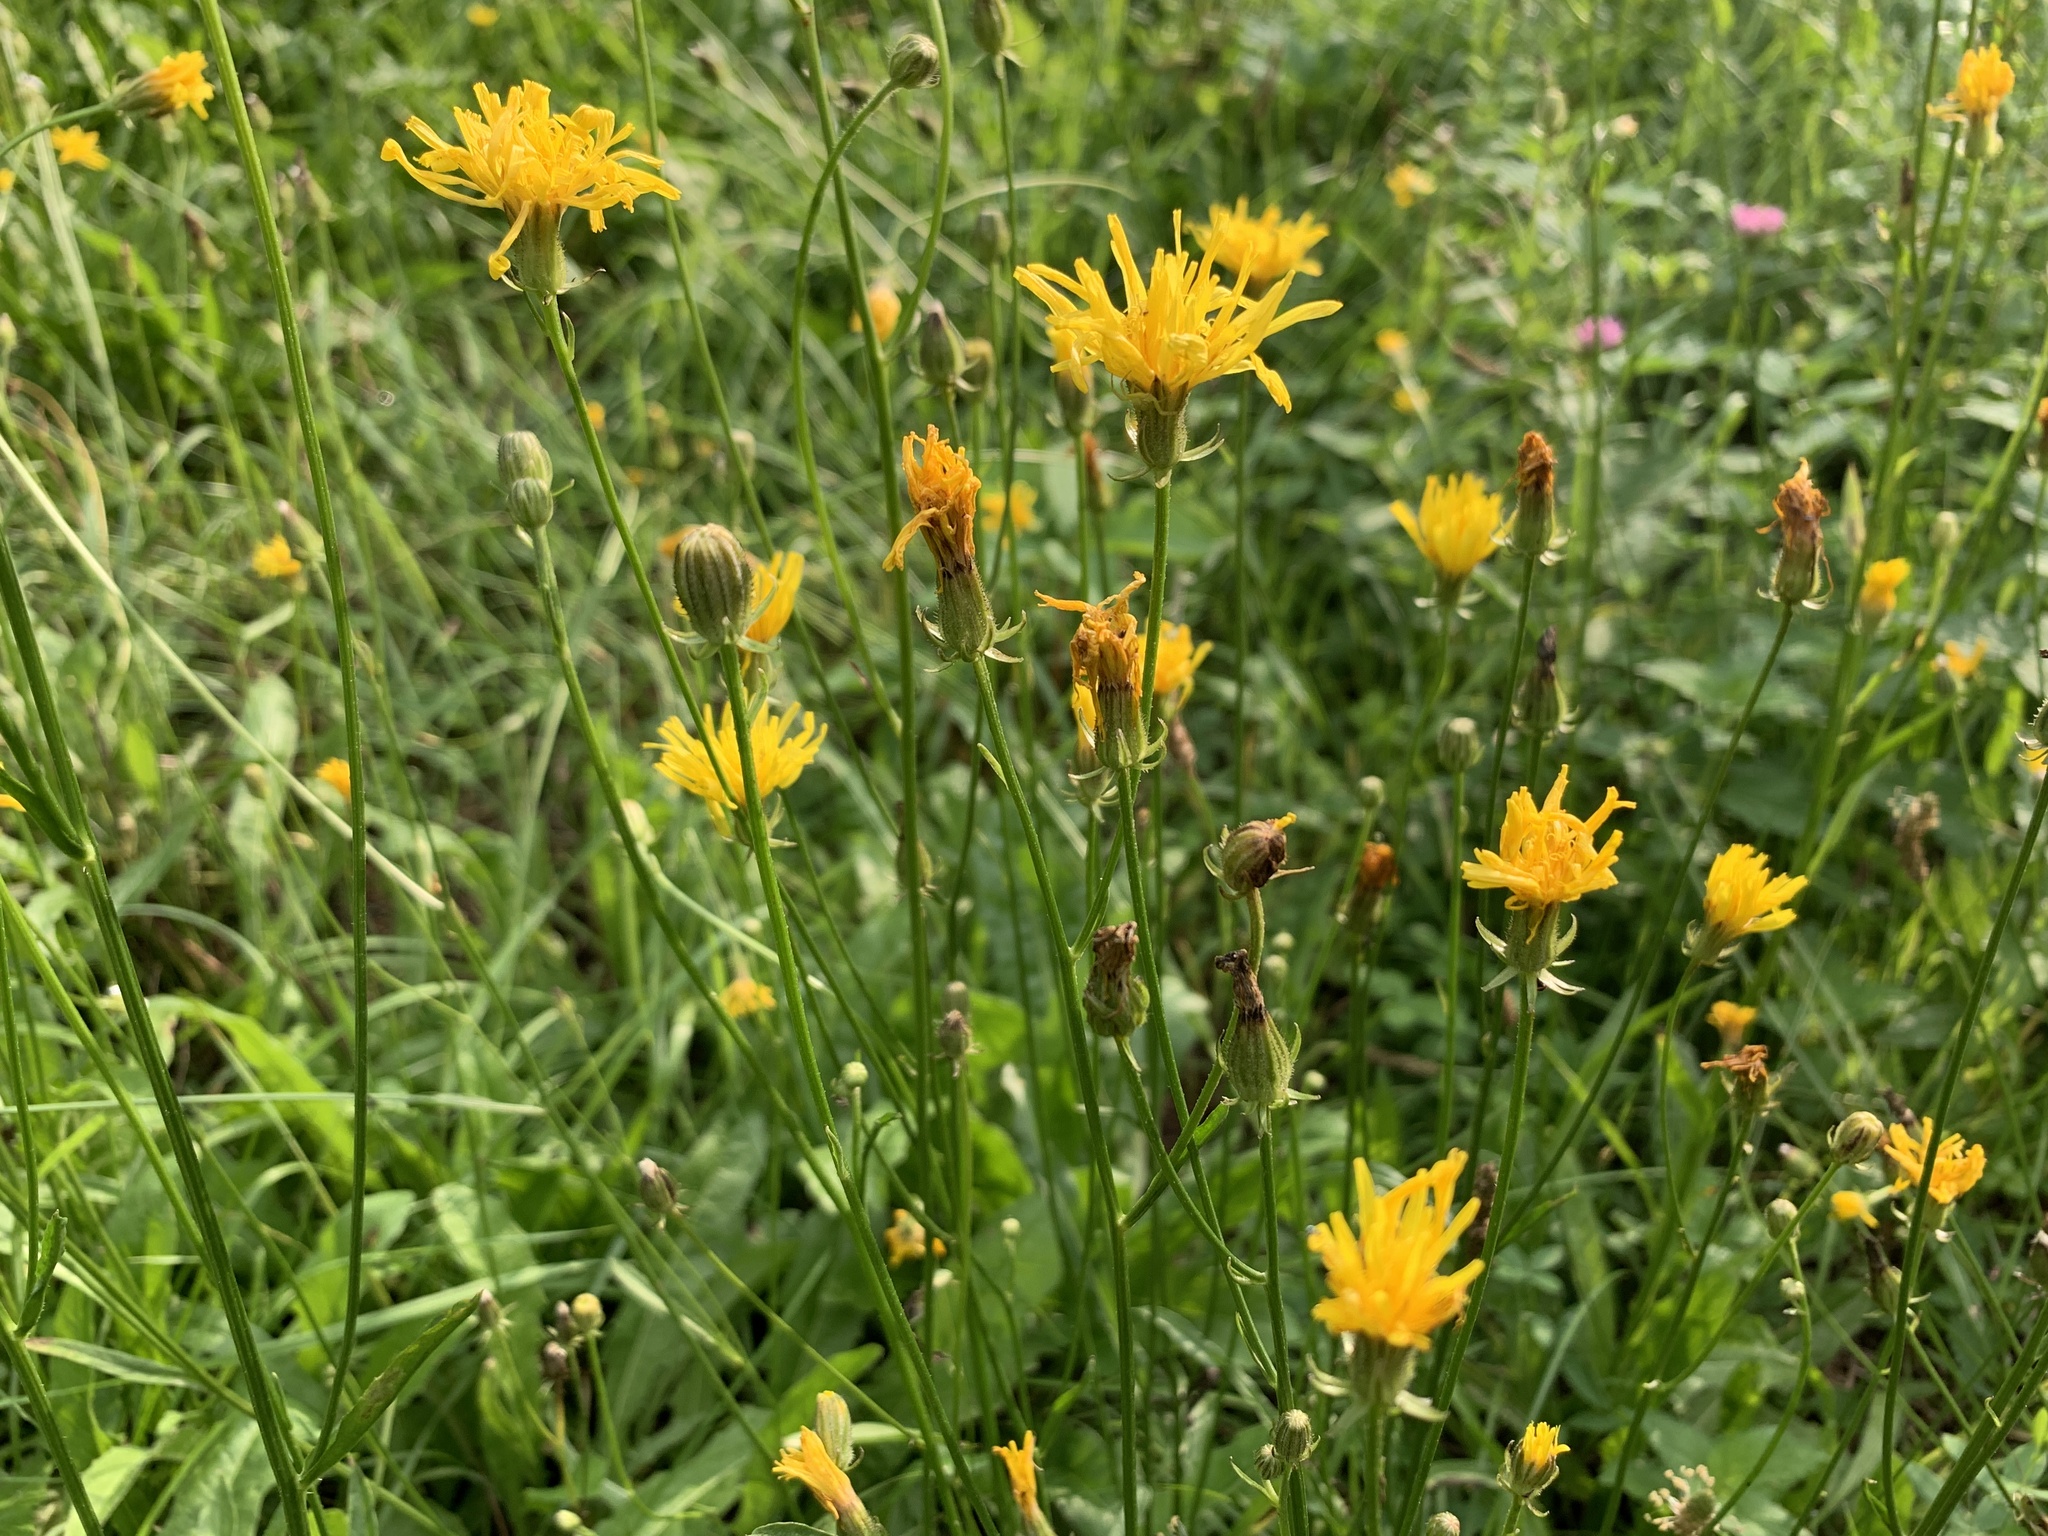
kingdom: Plantae
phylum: Tracheophyta
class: Magnoliopsida
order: Asterales
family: Asteraceae
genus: Crepis
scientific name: Crepis biennis
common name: Rough hawk's-beard
